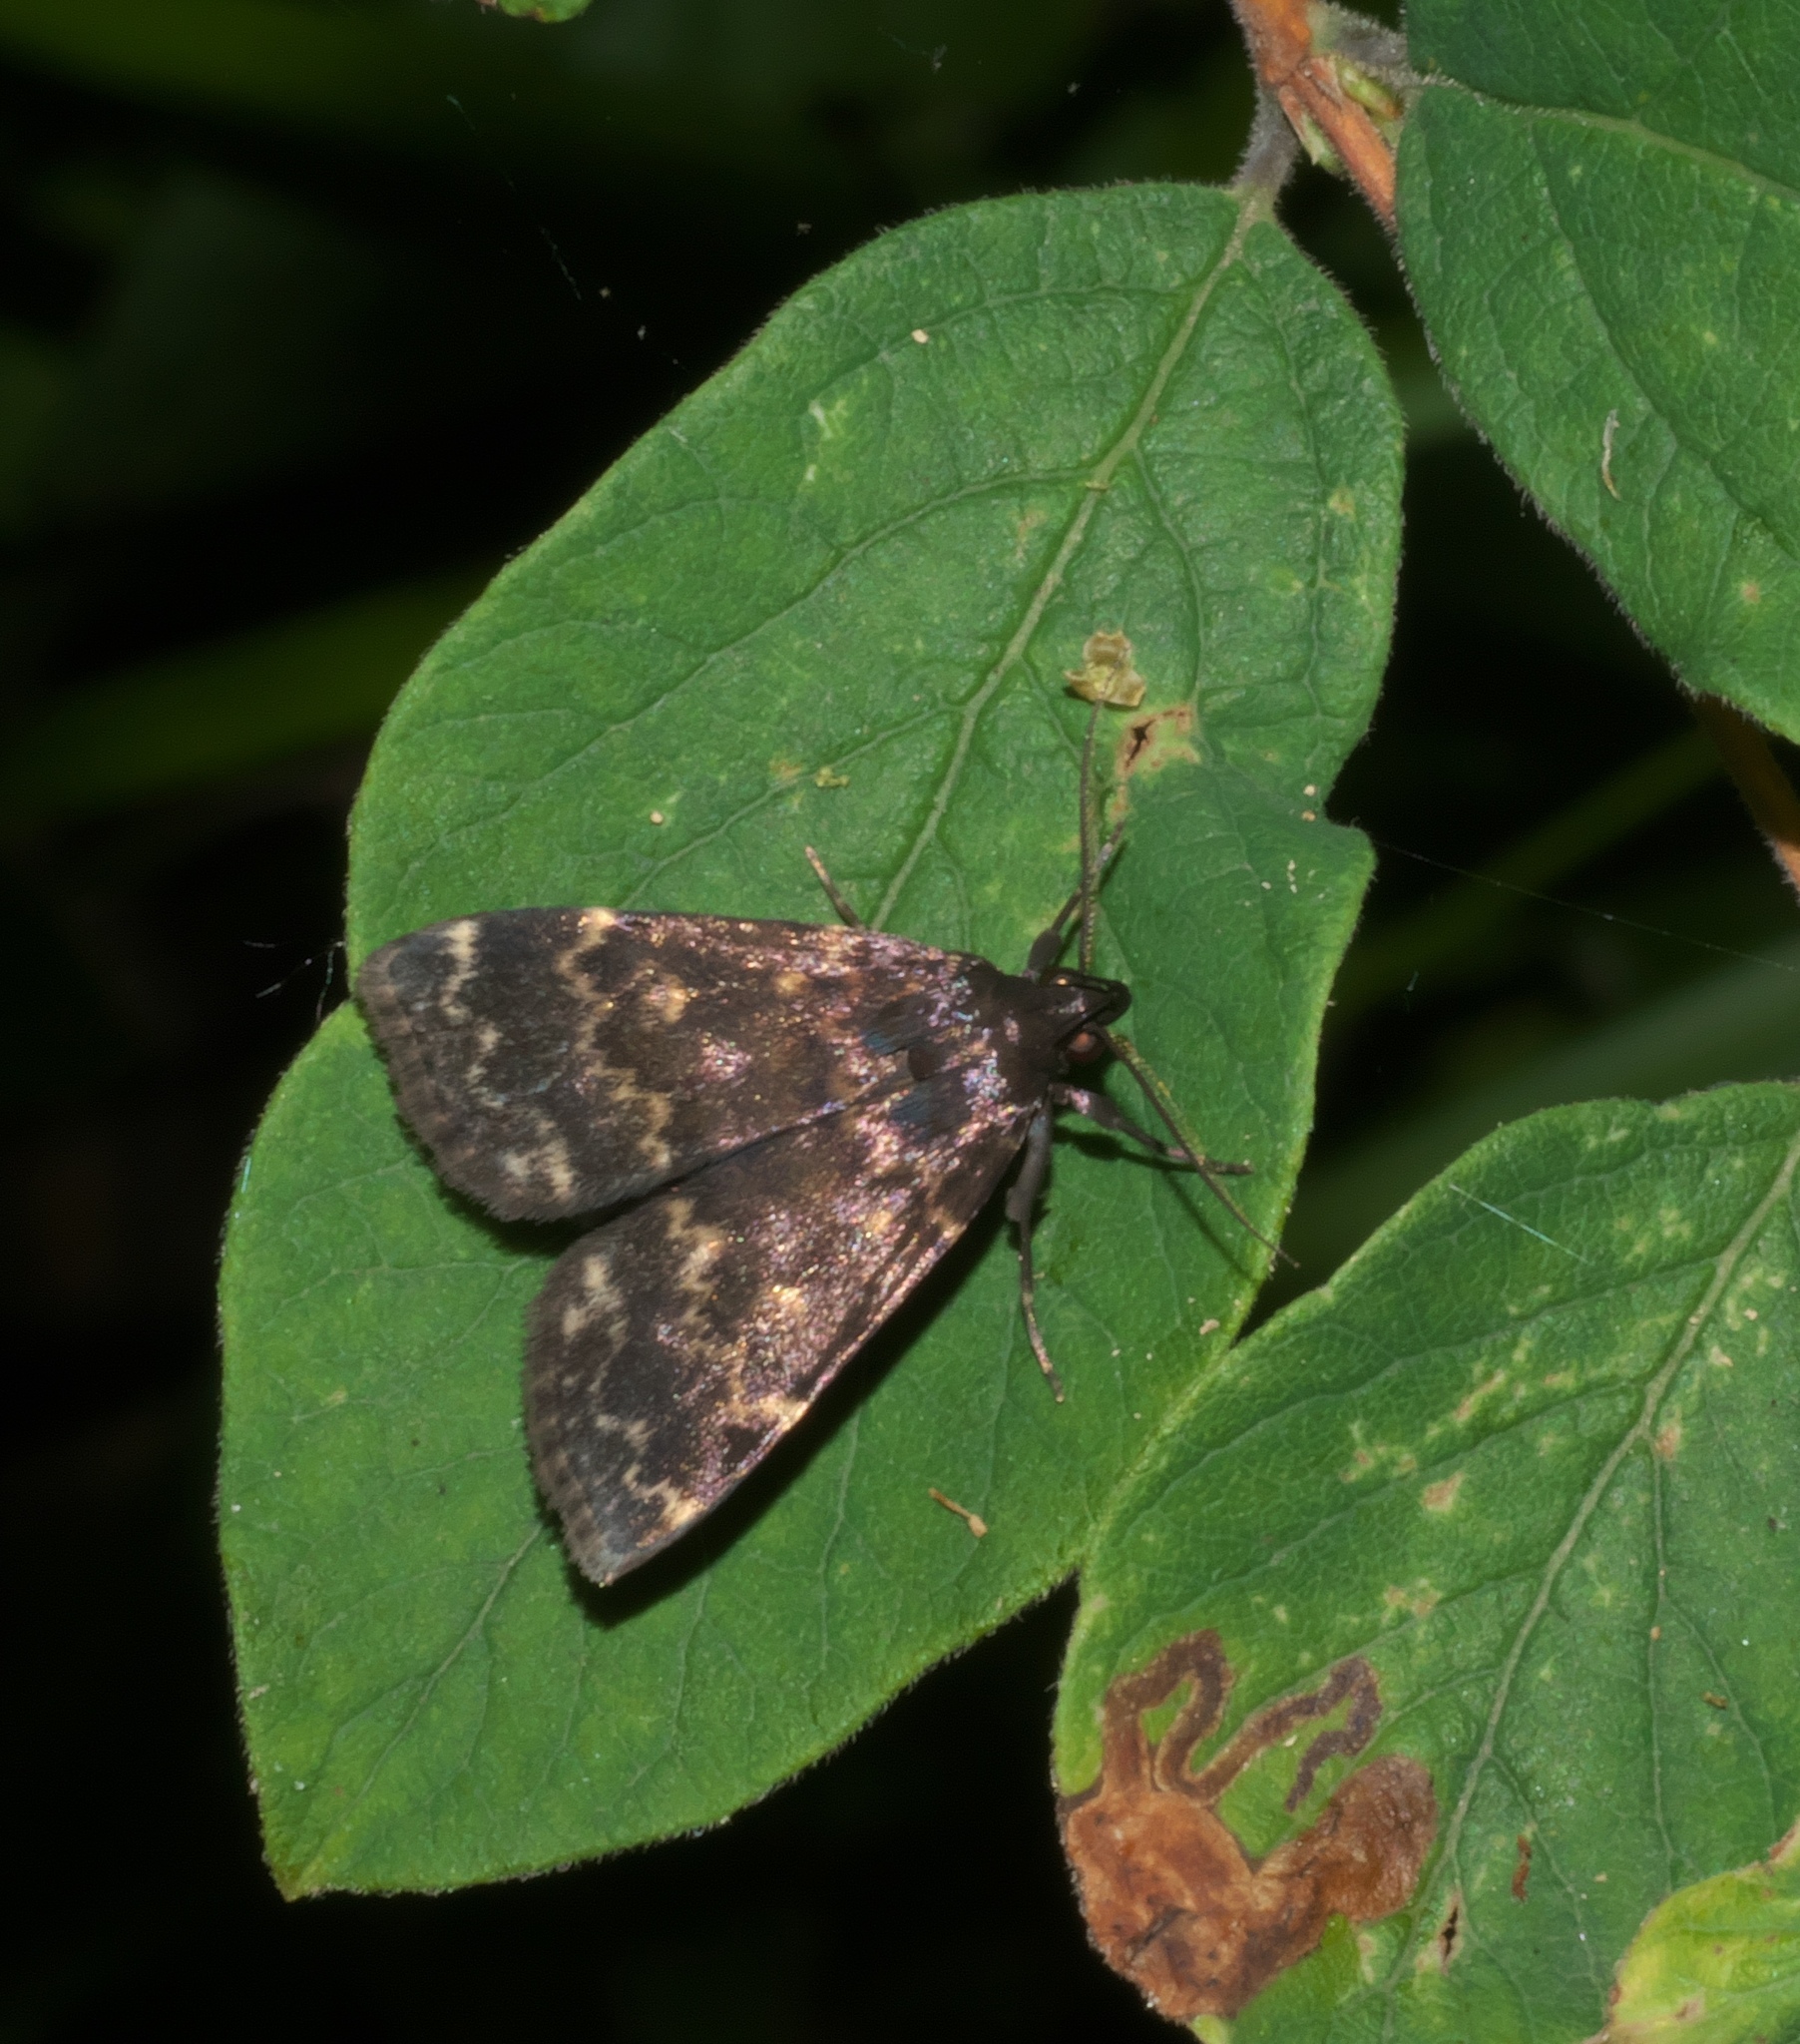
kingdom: Animalia
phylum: Arthropoda
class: Insecta
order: Lepidoptera
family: Erebidae
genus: Idia
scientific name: Idia lubricalis
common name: Twin-striped tabby
